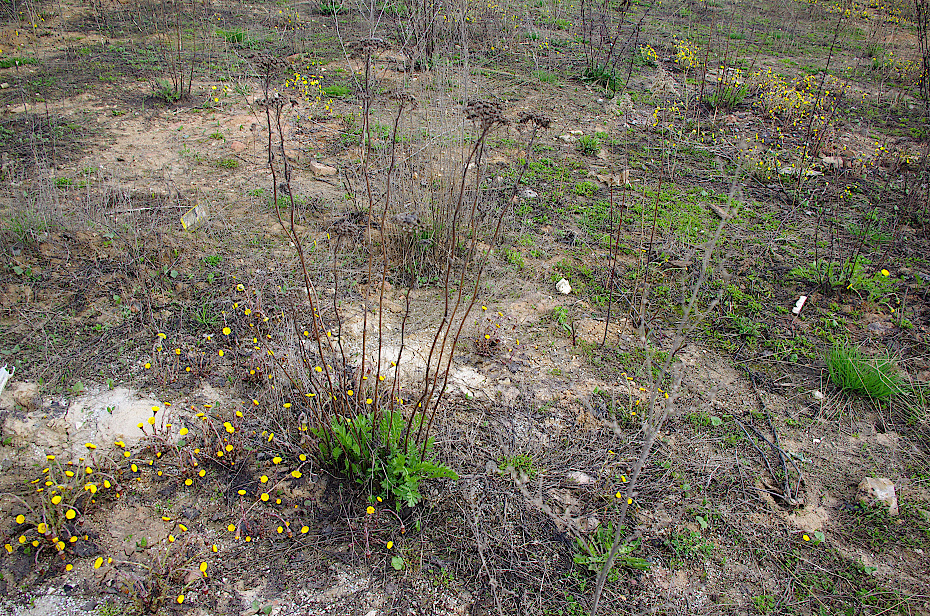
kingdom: Plantae
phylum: Tracheophyta
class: Magnoliopsida
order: Asterales
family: Asteraceae
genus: Tanacetum
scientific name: Tanacetum vulgare
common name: Common tansy
